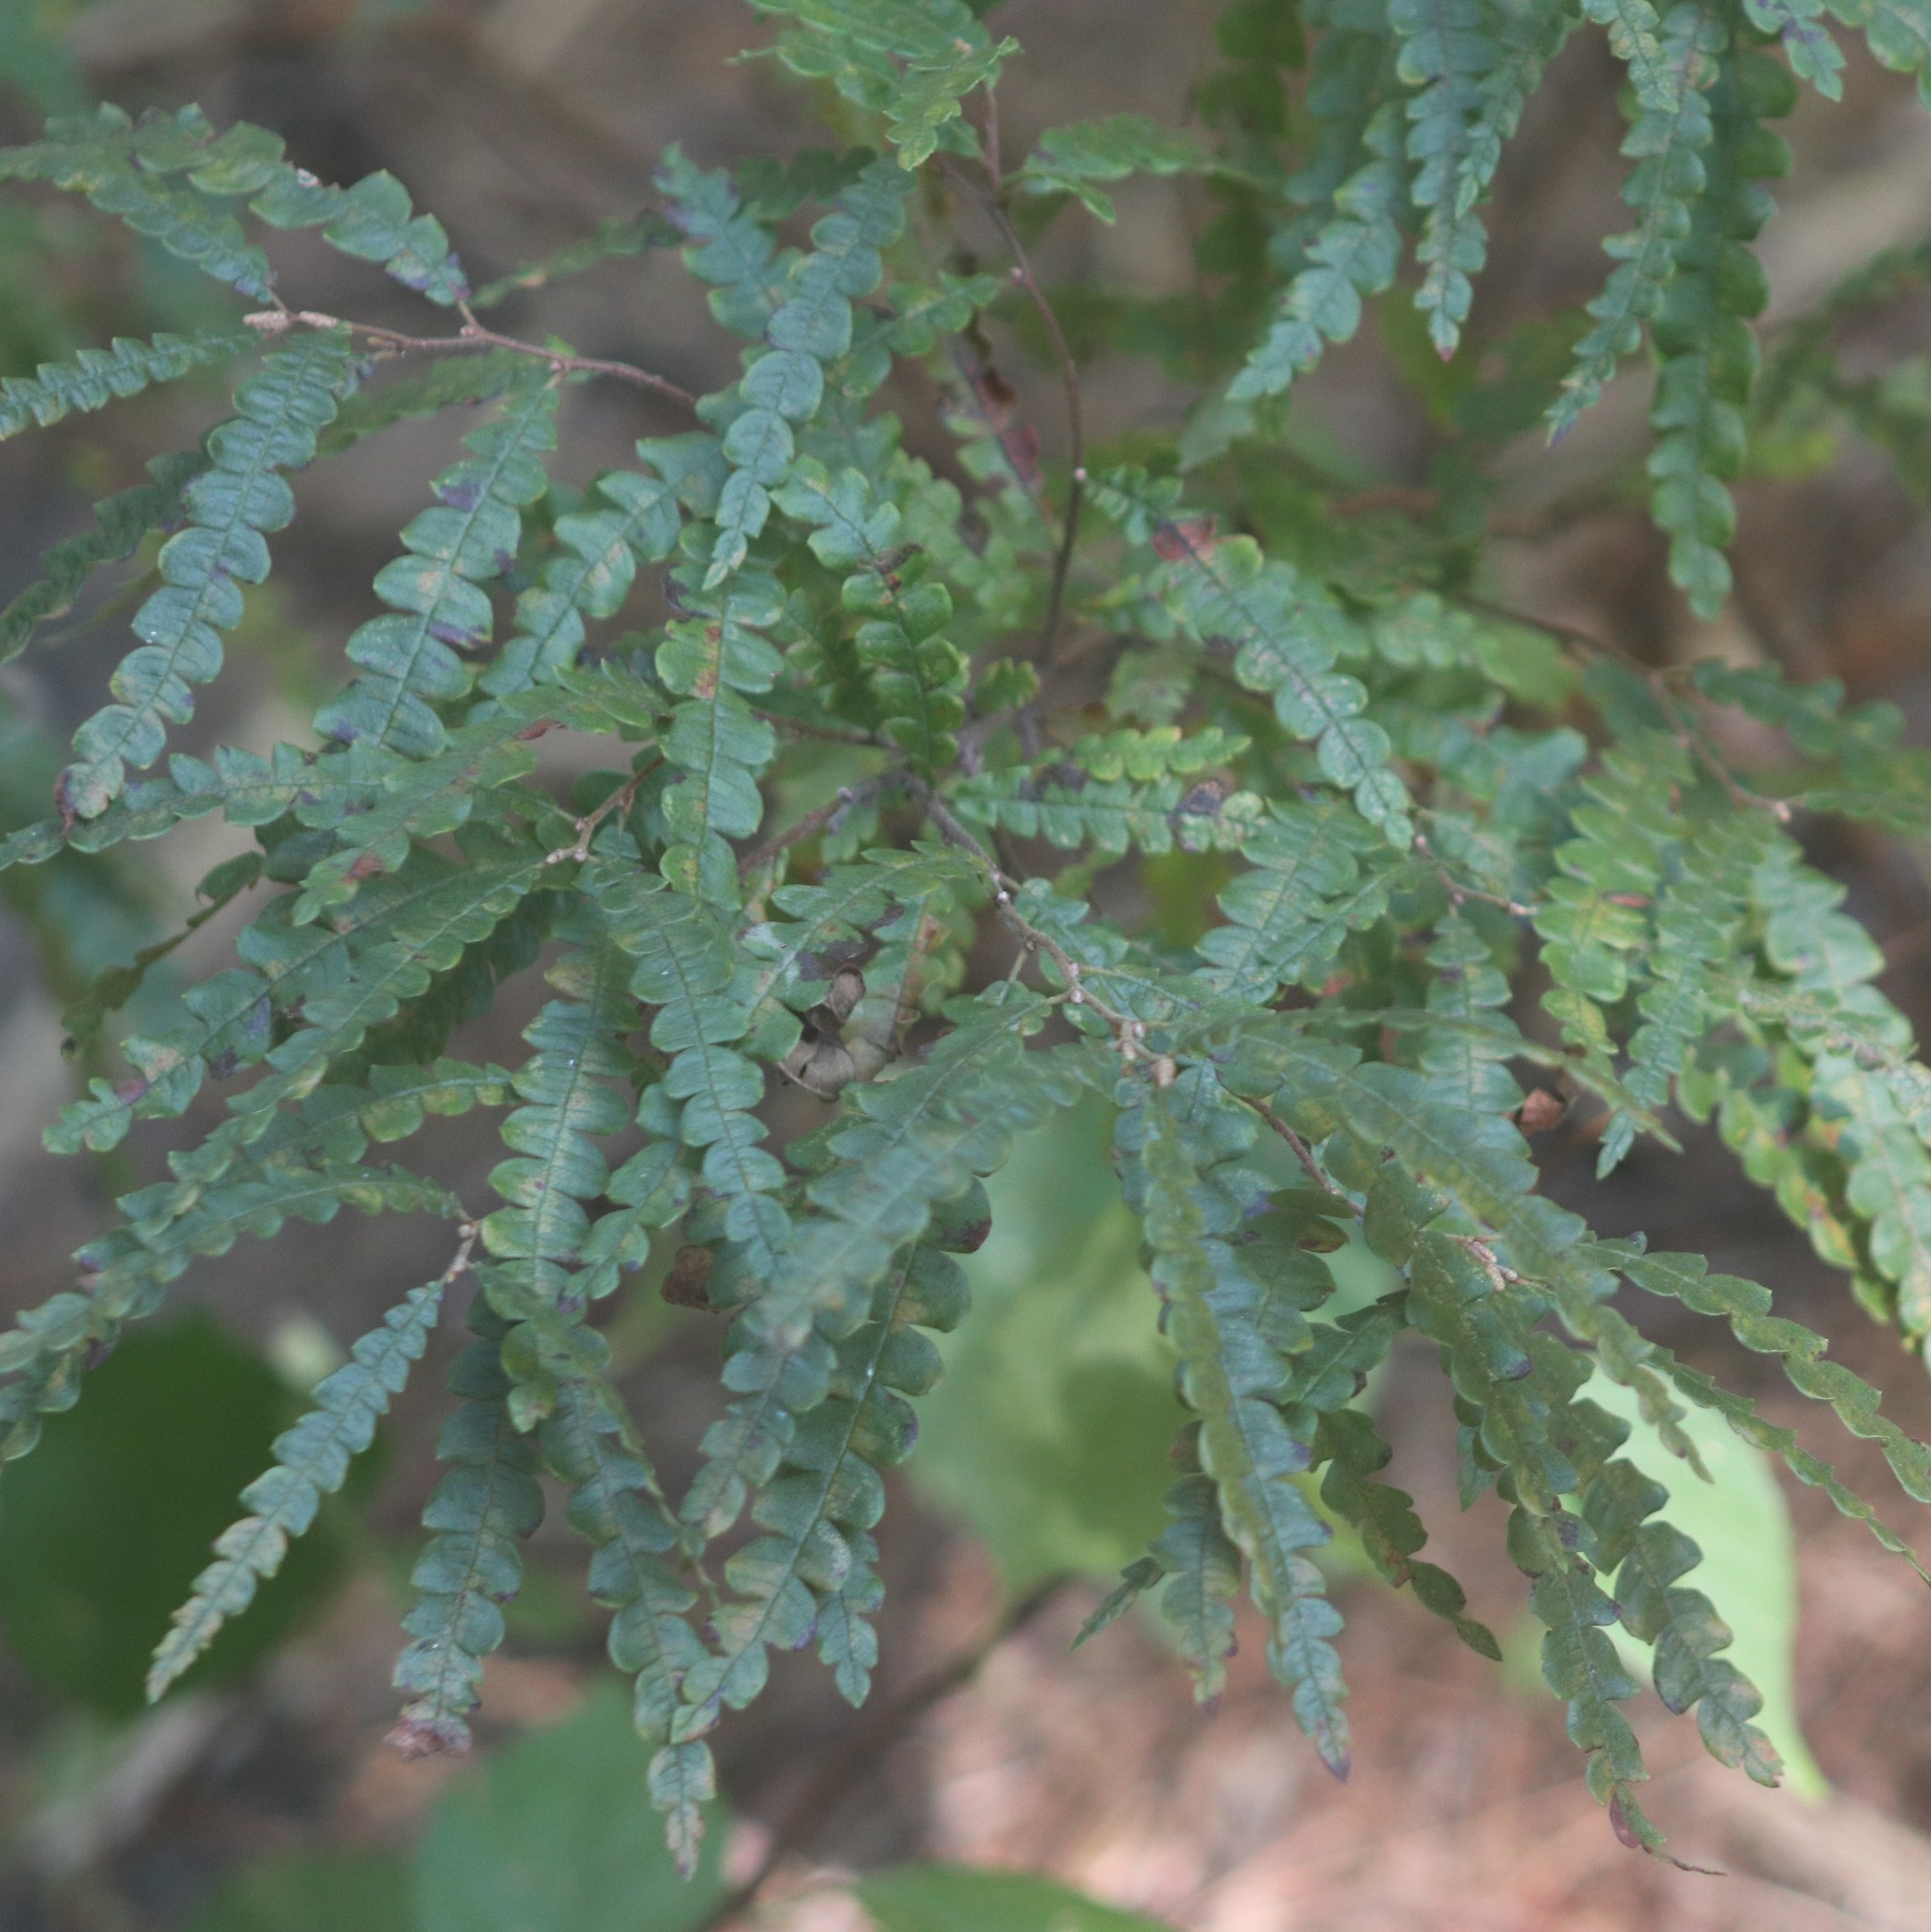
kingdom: Plantae
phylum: Tracheophyta
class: Magnoliopsida
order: Fagales
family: Myricaceae
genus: Comptonia
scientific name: Comptonia peregrina
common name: Sweet-fern
